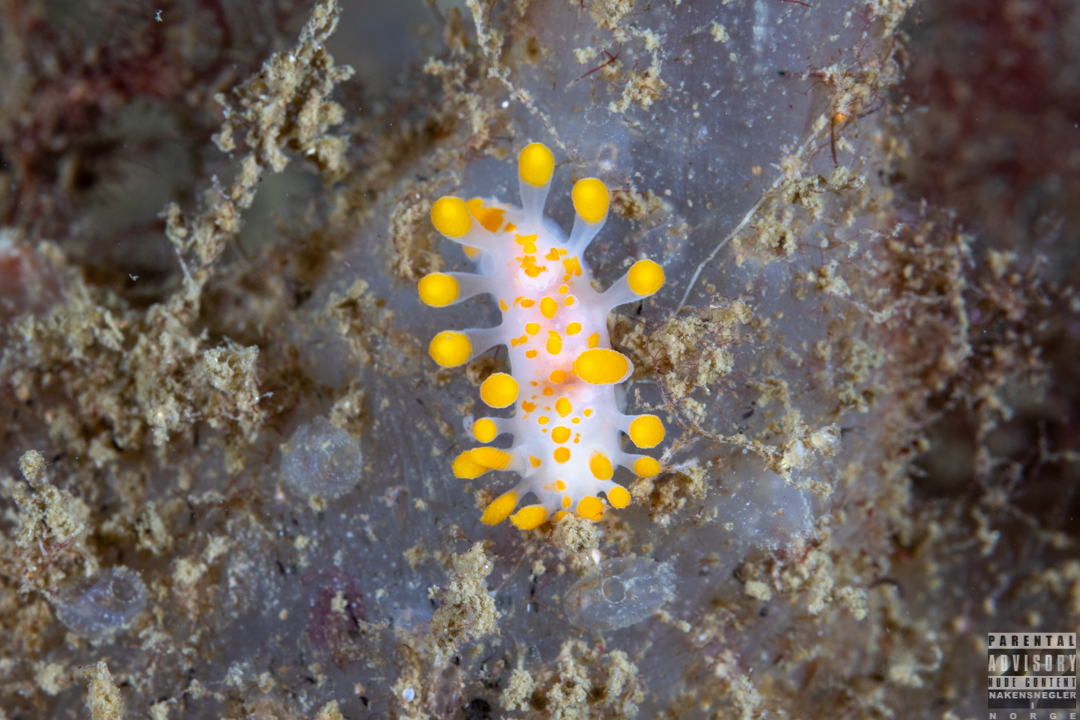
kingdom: Animalia
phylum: Mollusca
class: Gastropoda
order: Nudibranchia
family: Polyceridae
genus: Limacia
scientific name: Limacia clavigera
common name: Orange-clubbed sea slug
